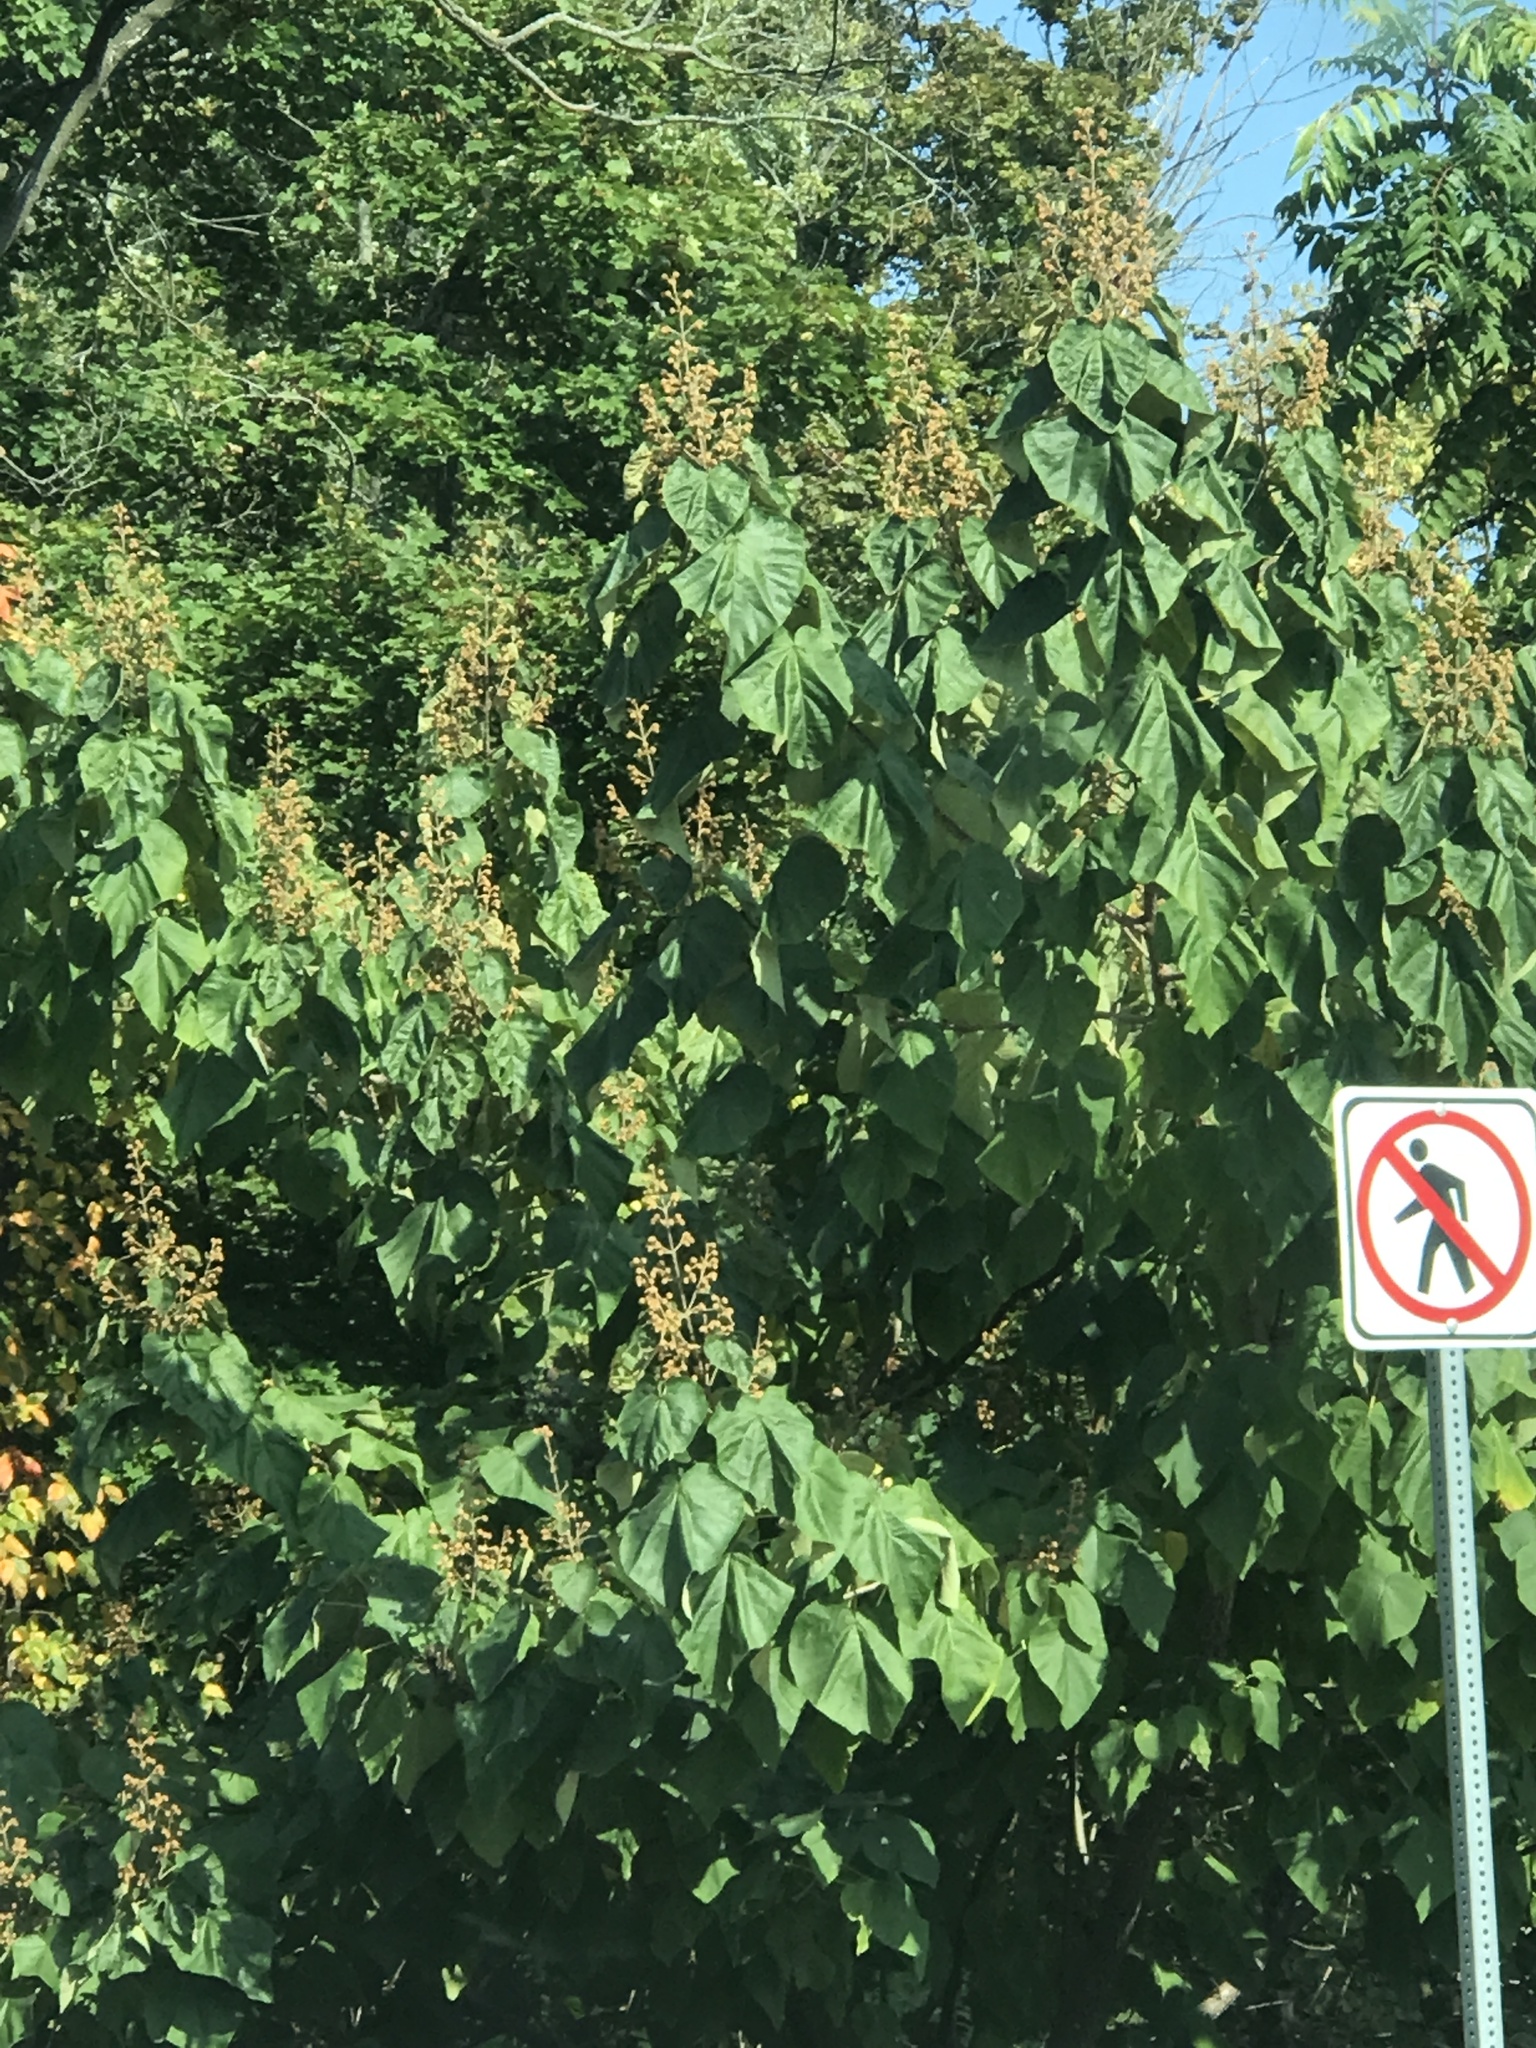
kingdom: Plantae
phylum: Tracheophyta
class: Magnoliopsida
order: Lamiales
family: Paulowniaceae
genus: Paulownia
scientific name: Paulownia tomentosa
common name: Foxglove-tree
